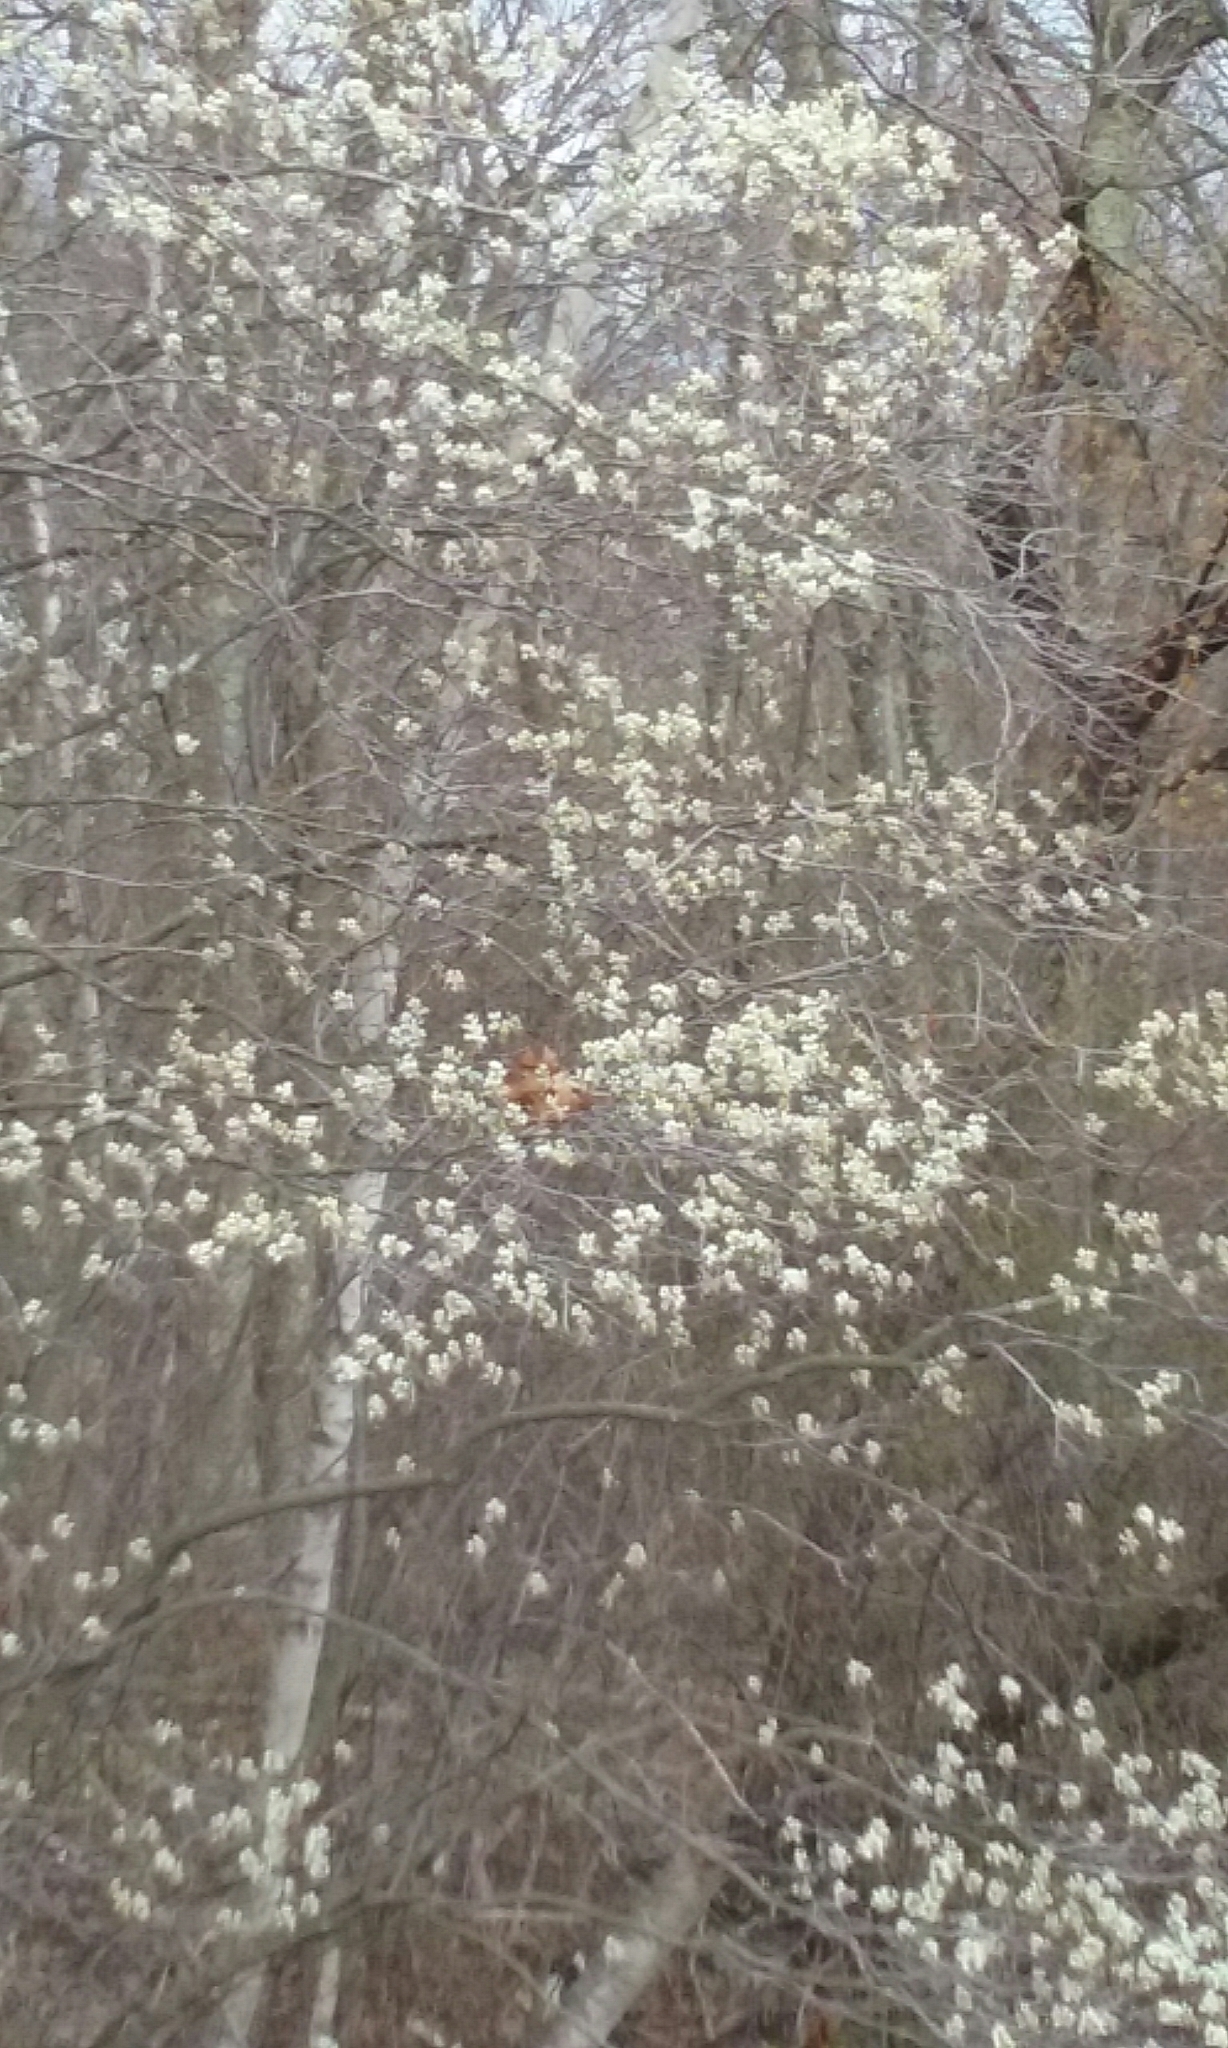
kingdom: Plantae
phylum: Tracheophyta
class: Magnoliopsida
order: Rosales
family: Rosaceae
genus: Amelanchier
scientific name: Amelanchier
